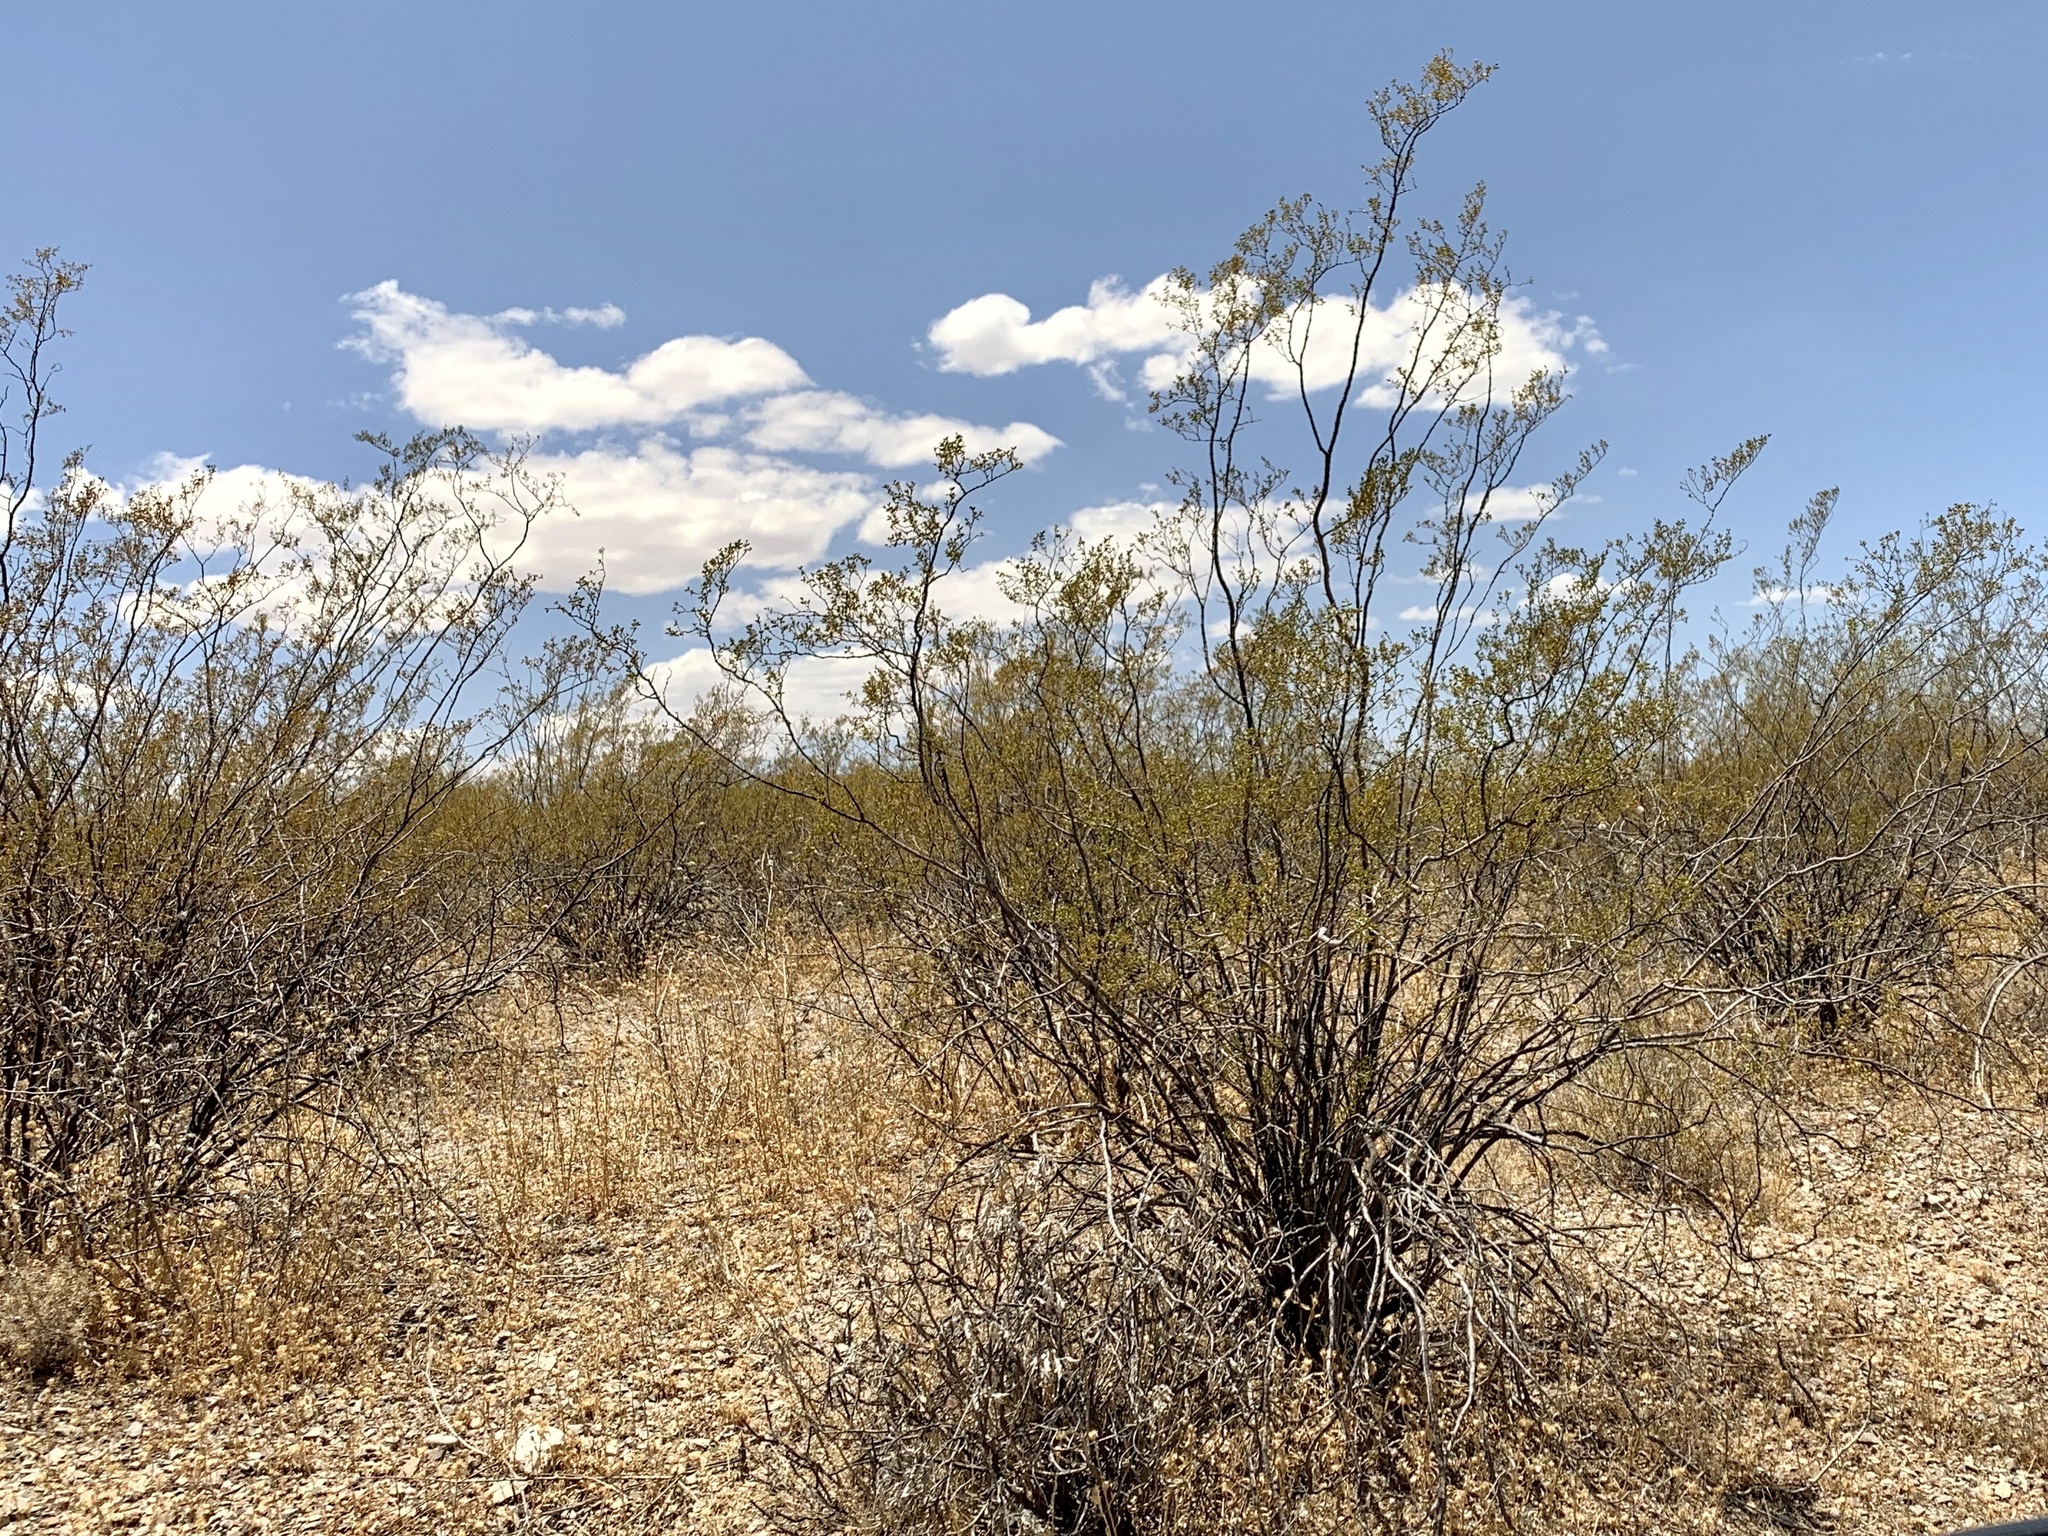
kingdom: Plantae
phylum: Tracheophyta
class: Magnoliopsida
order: Zygophyllales
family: Zygophyllaceae
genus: Larrea
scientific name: Larrea tridentata
